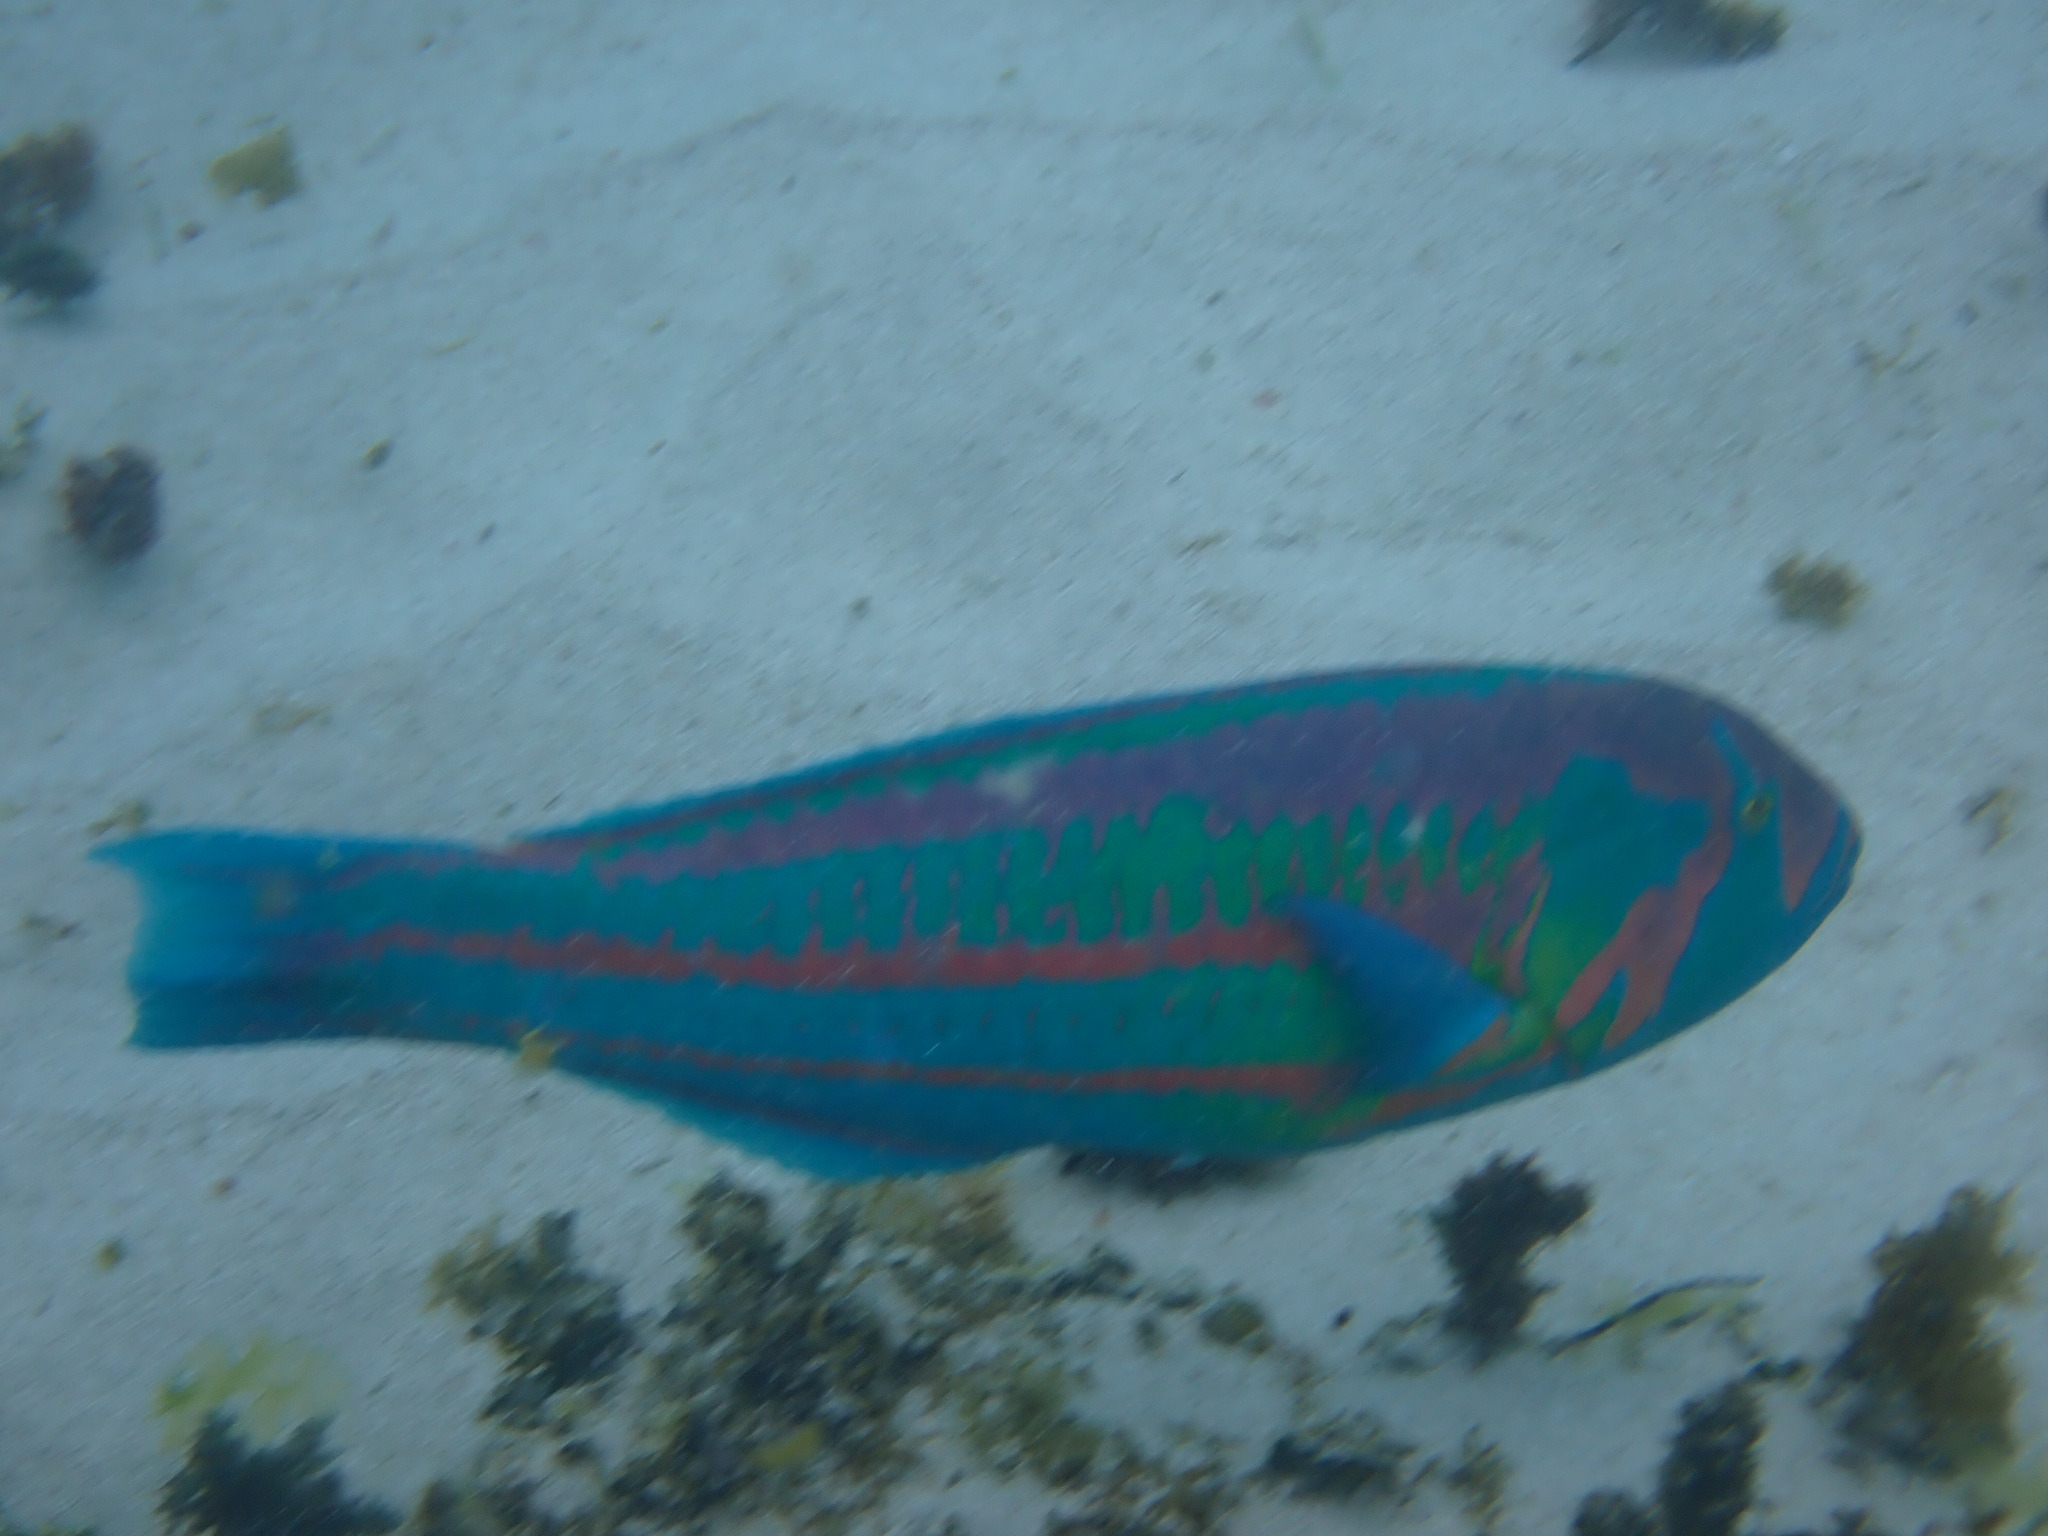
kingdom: Animalia
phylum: Chordata
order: Perciformes
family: Labridae
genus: Thalassoma
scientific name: Thalassoma purpureum
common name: Parrotfish
